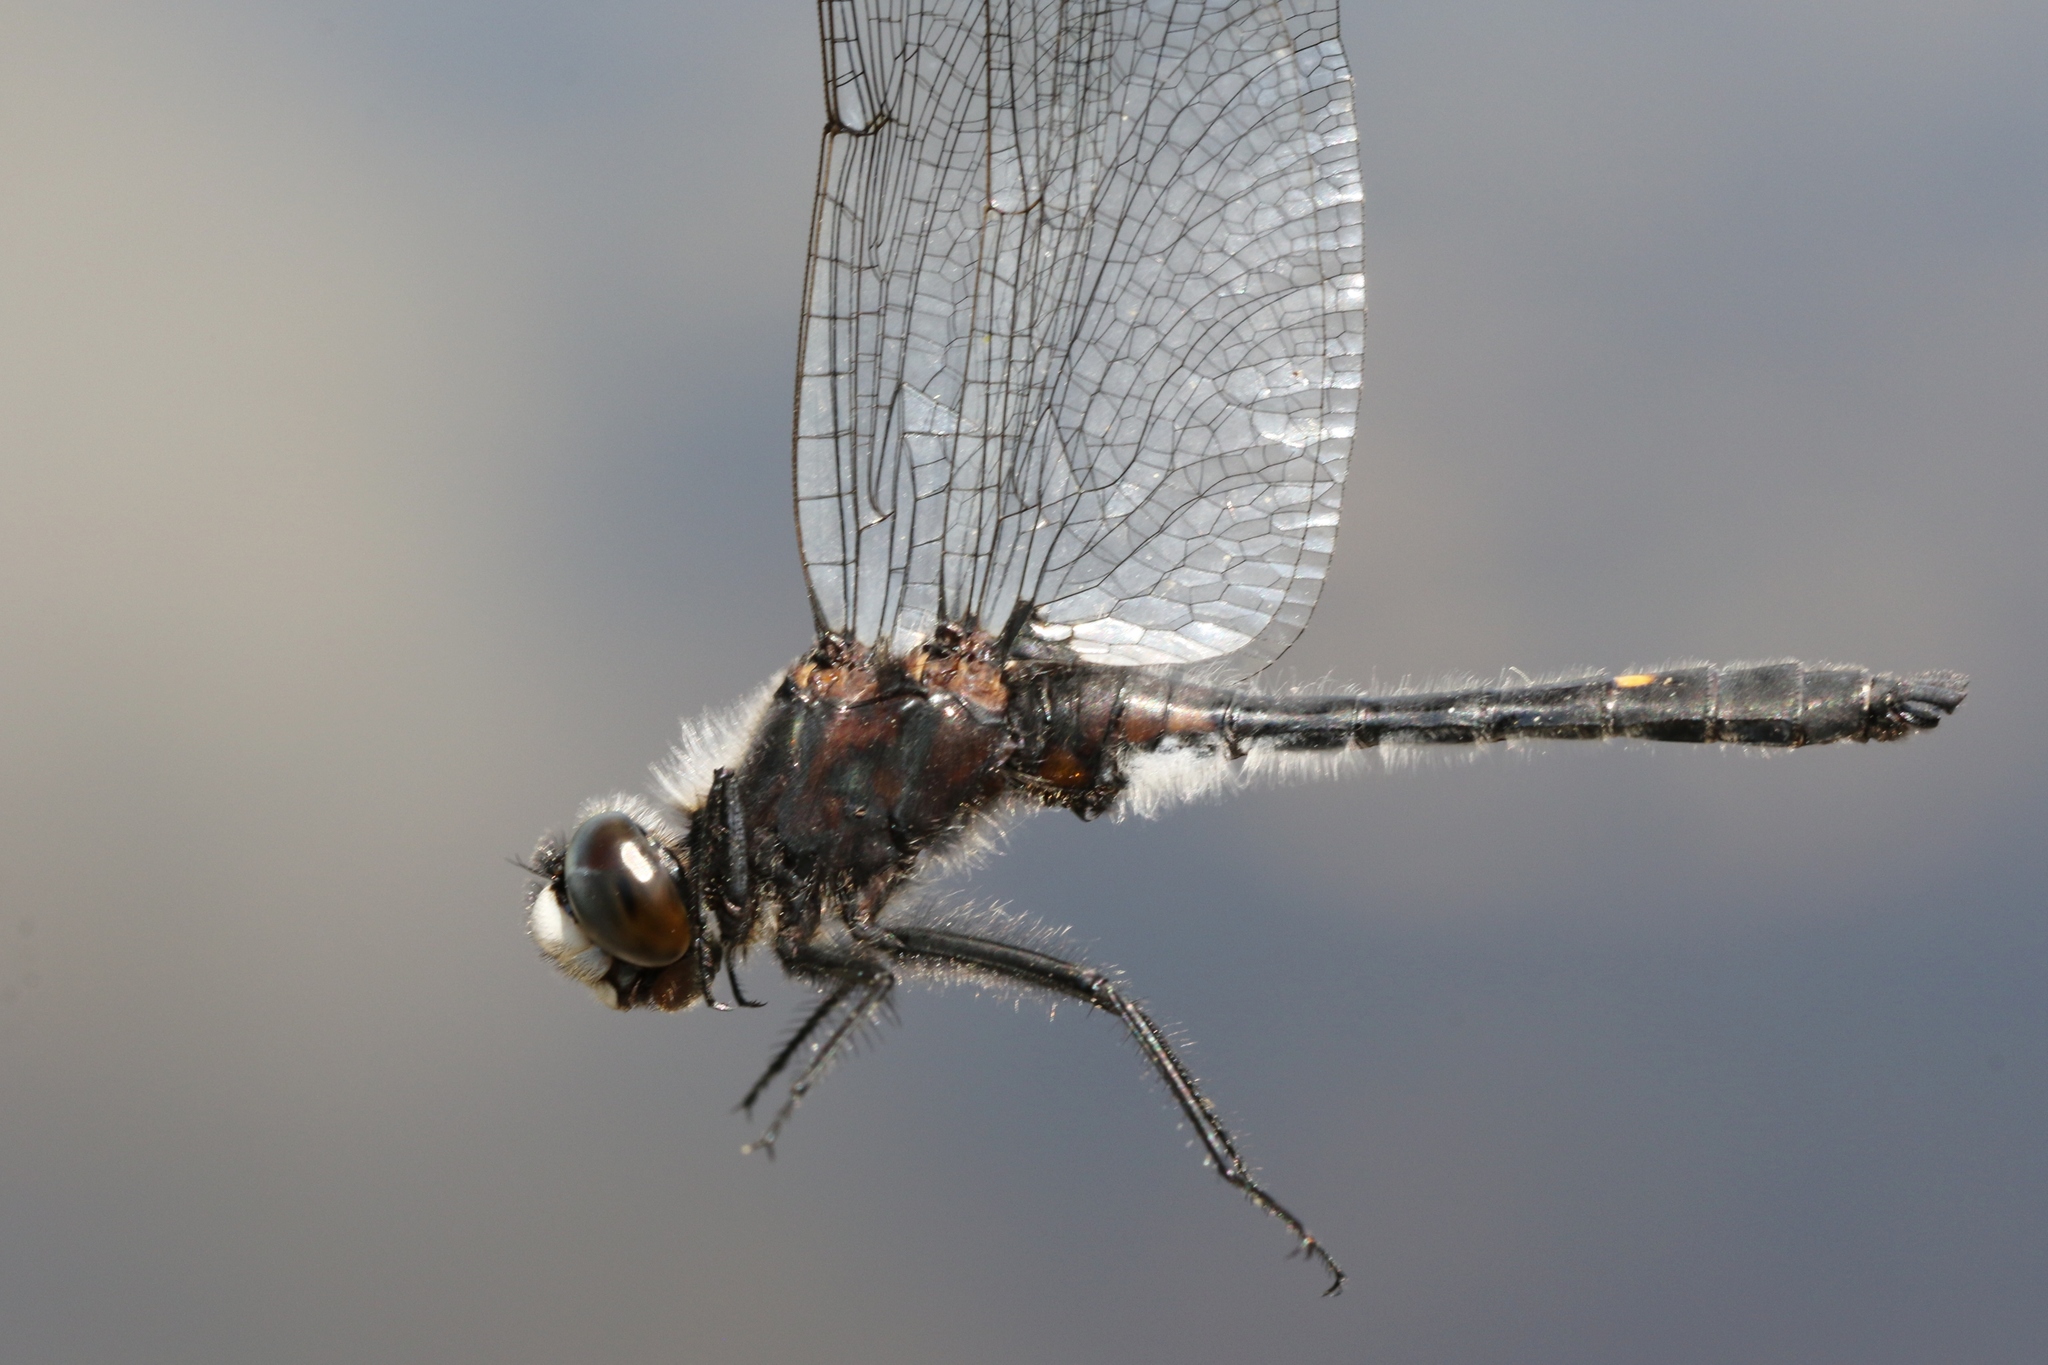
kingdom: Animalia
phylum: Arthropoda
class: Insecta
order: Odonata
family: Libellulidae
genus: Leucorrhinia
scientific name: Leucorrhinia intacta
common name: Dot-tailed whiteface
